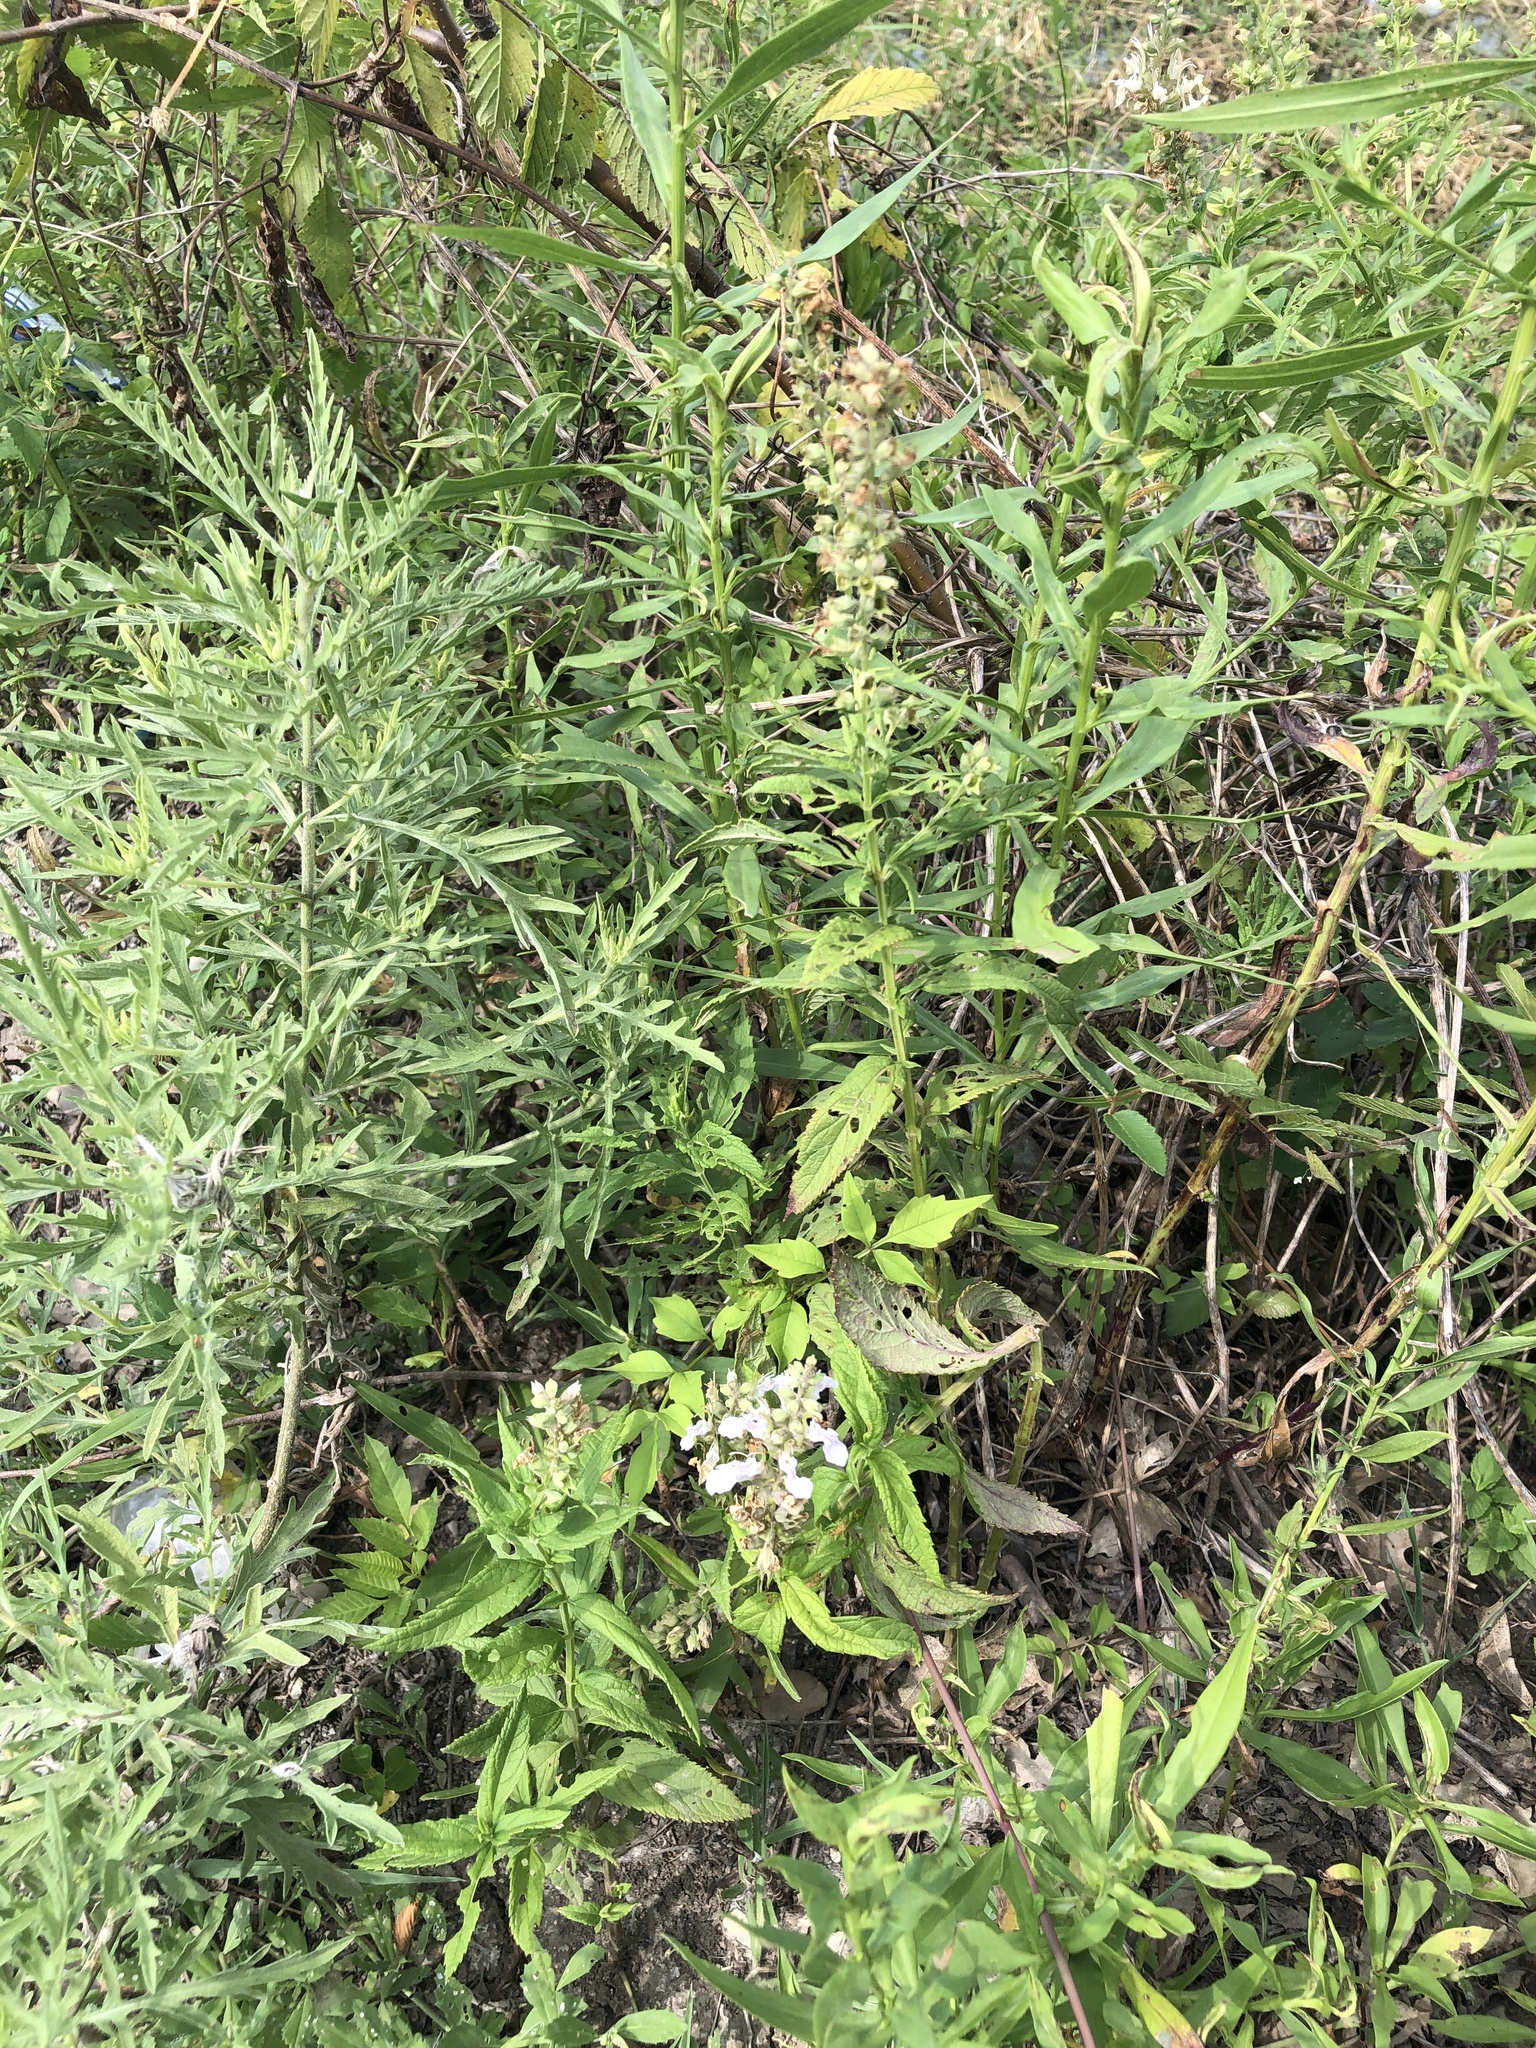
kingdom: Plantae
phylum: Tracheophyta
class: Magnoliopsida
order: Lamiales
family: Lamiaceae
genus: Teucrium
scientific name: Teucrium canadense
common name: American germander
